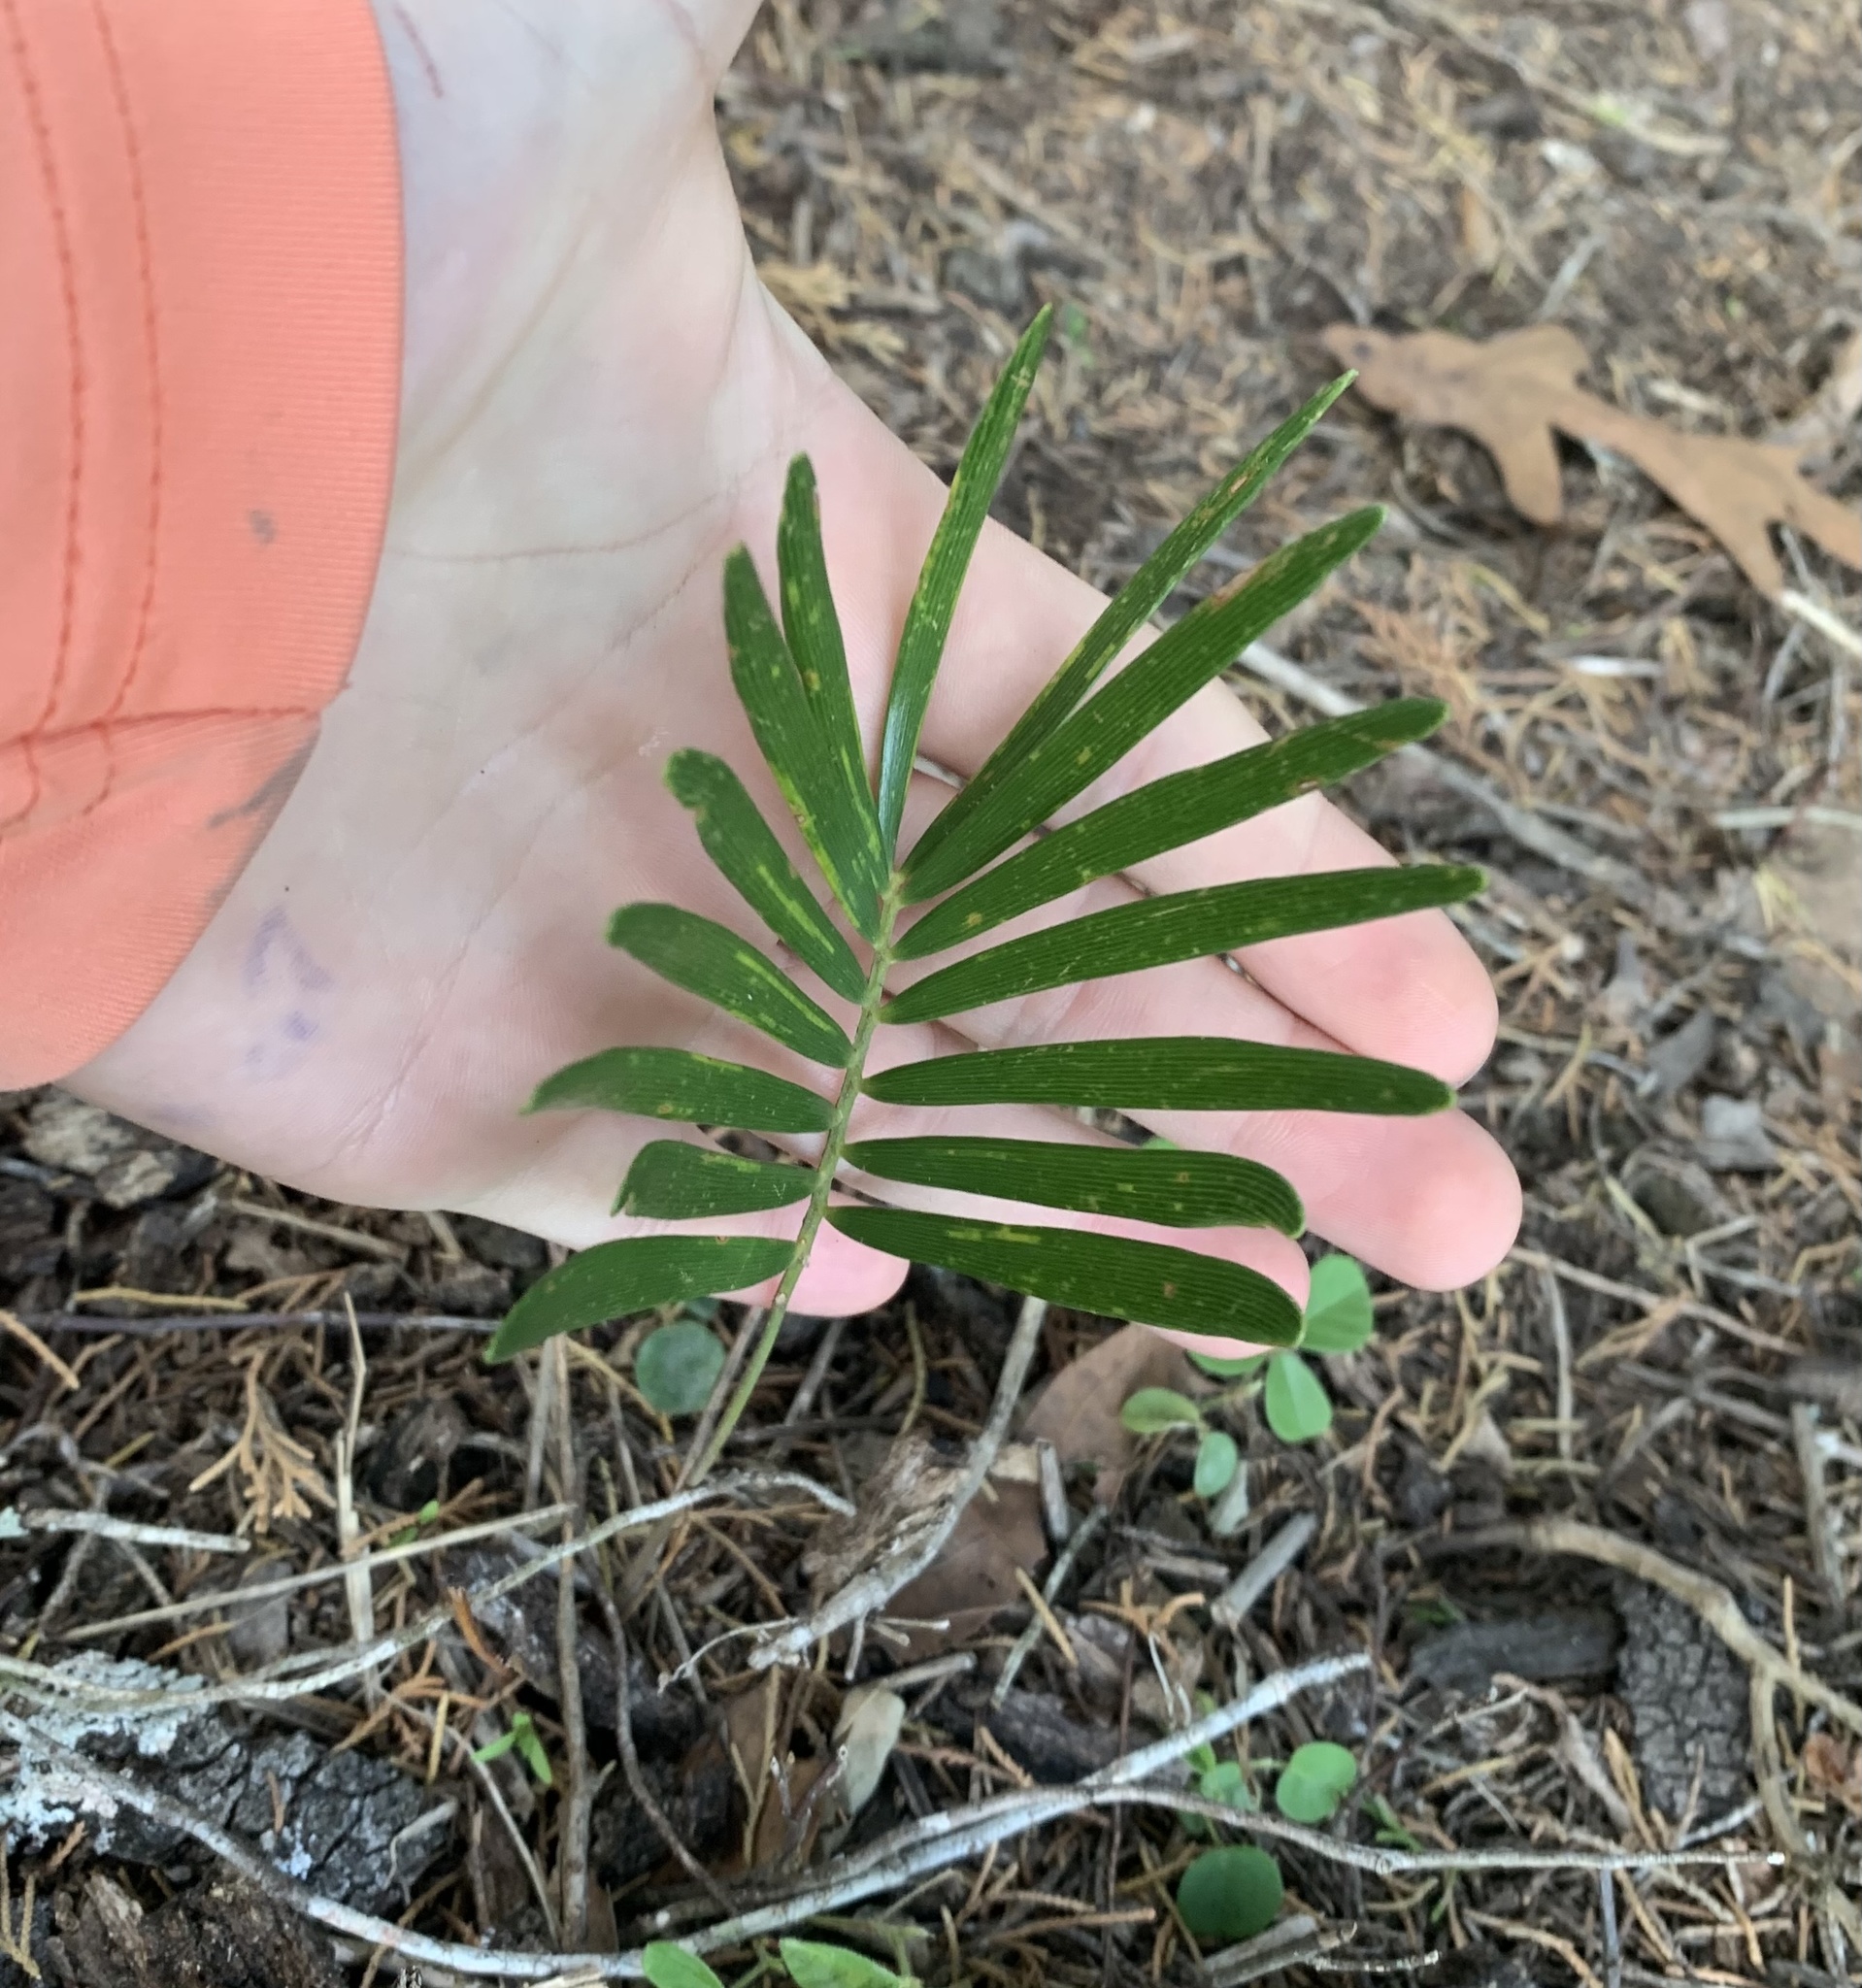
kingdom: Plantae
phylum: Tracheophyta
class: Cycadopsida
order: Cycadales
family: Zamiaceae
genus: Zamia
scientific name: Zamia integrifolia
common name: Florida arrowroot
